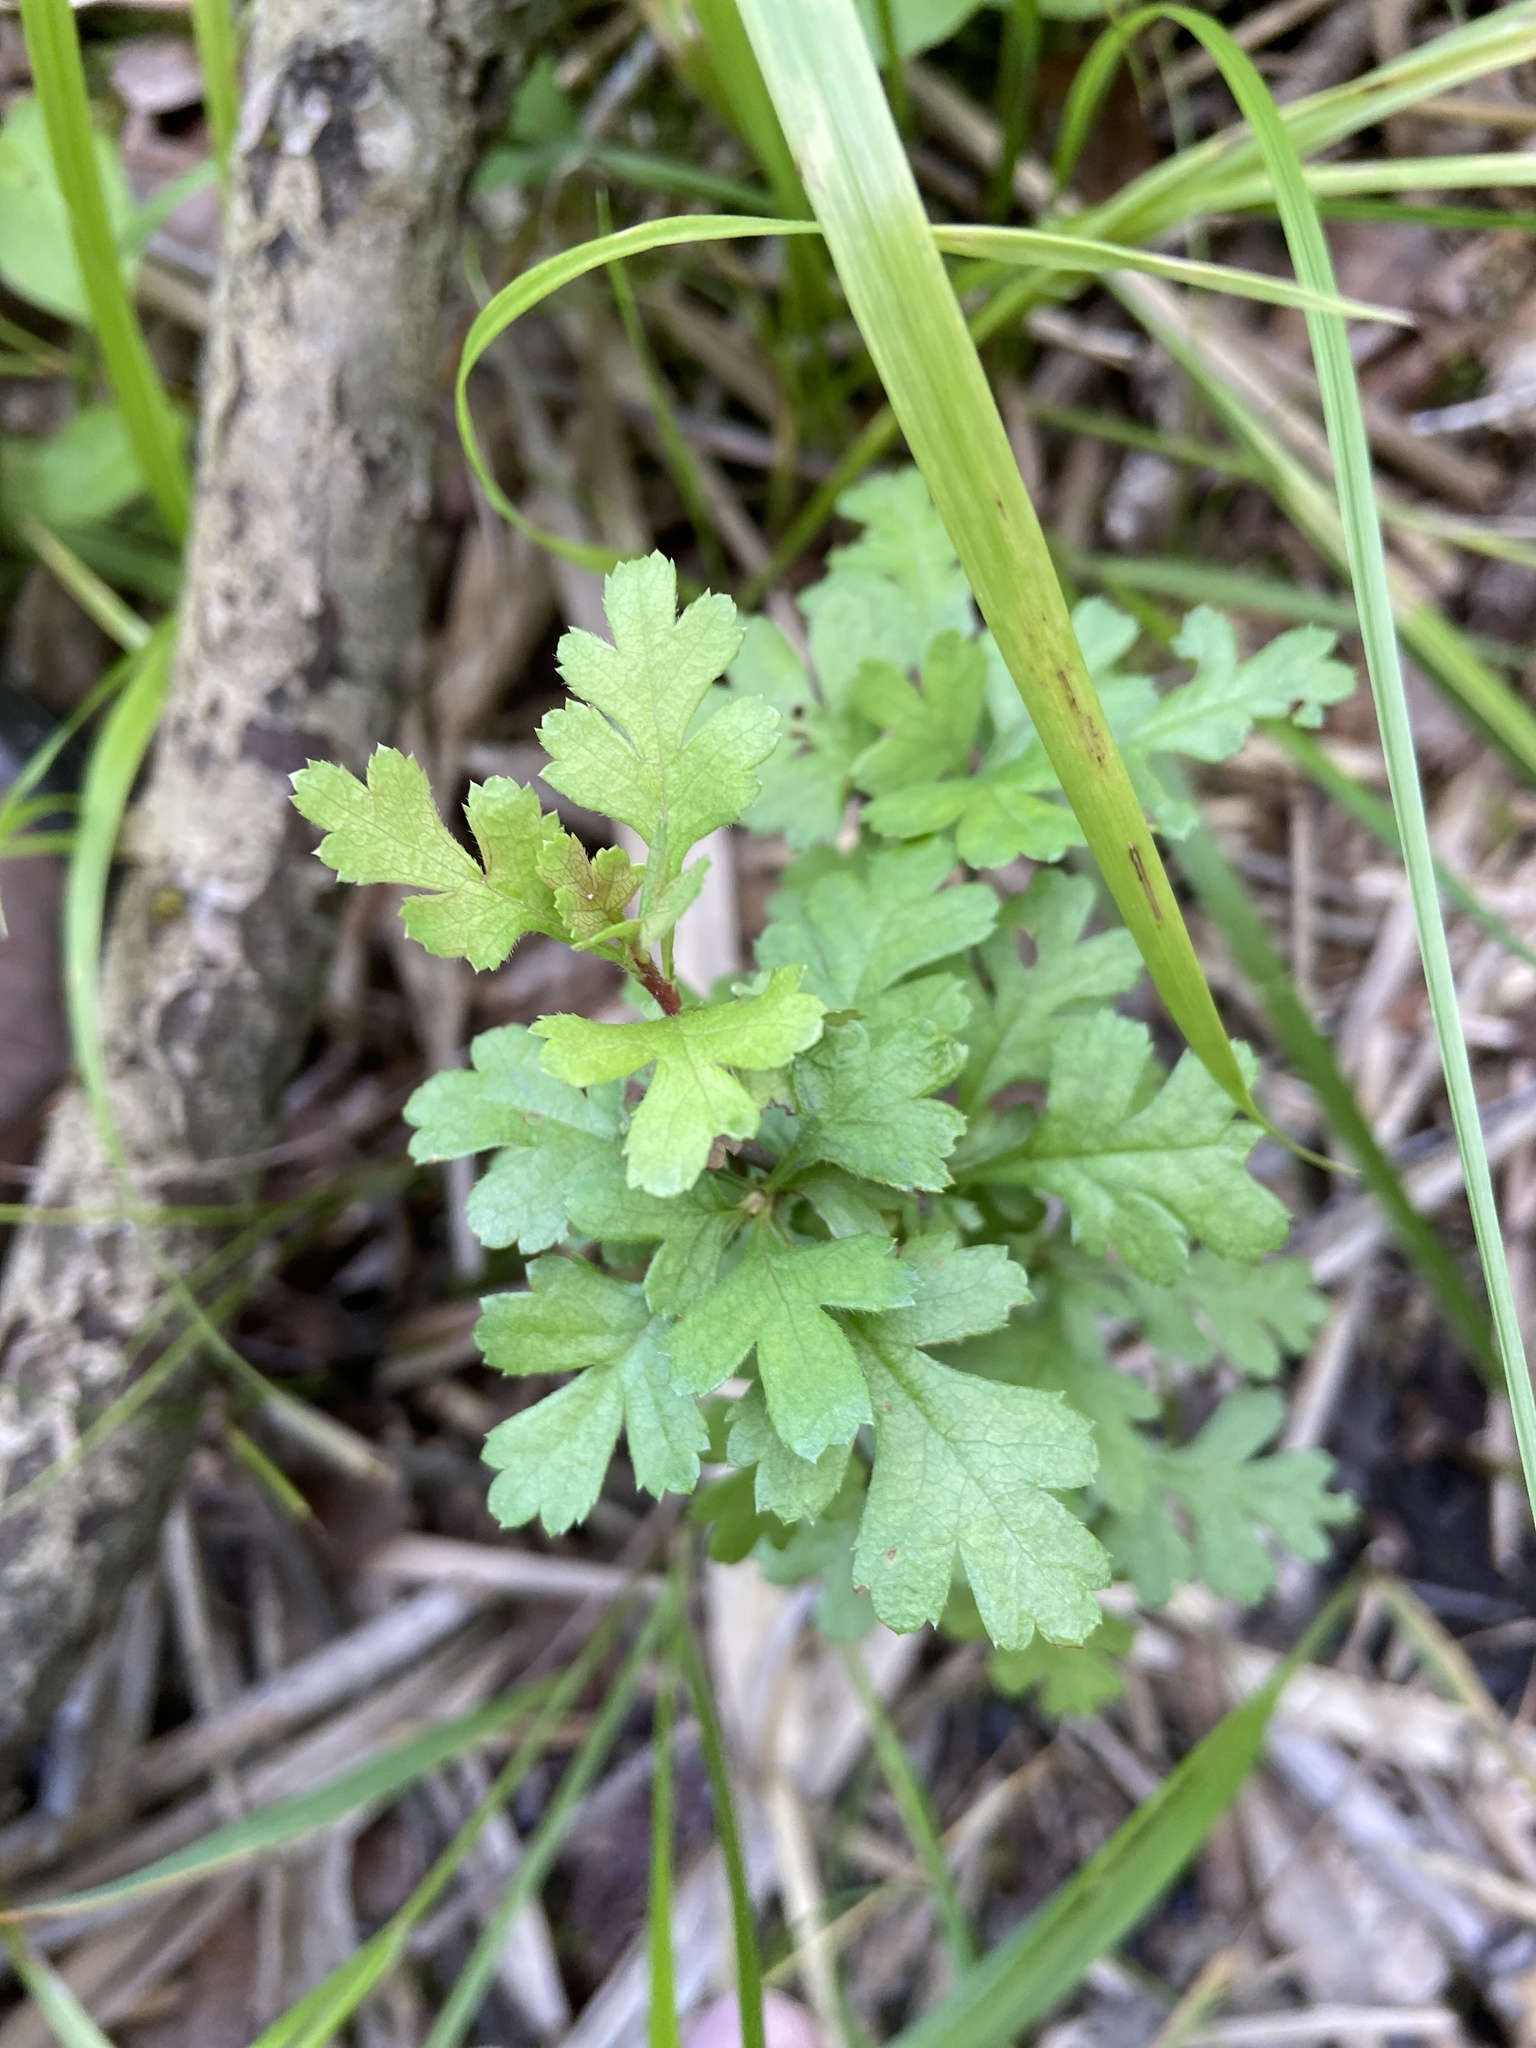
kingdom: Plantae
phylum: Tracheophyta
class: Magnoliopsida
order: Rosales
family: Rosaceae
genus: Crataegus
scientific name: Crataegus monogyna
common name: Hawthorn
